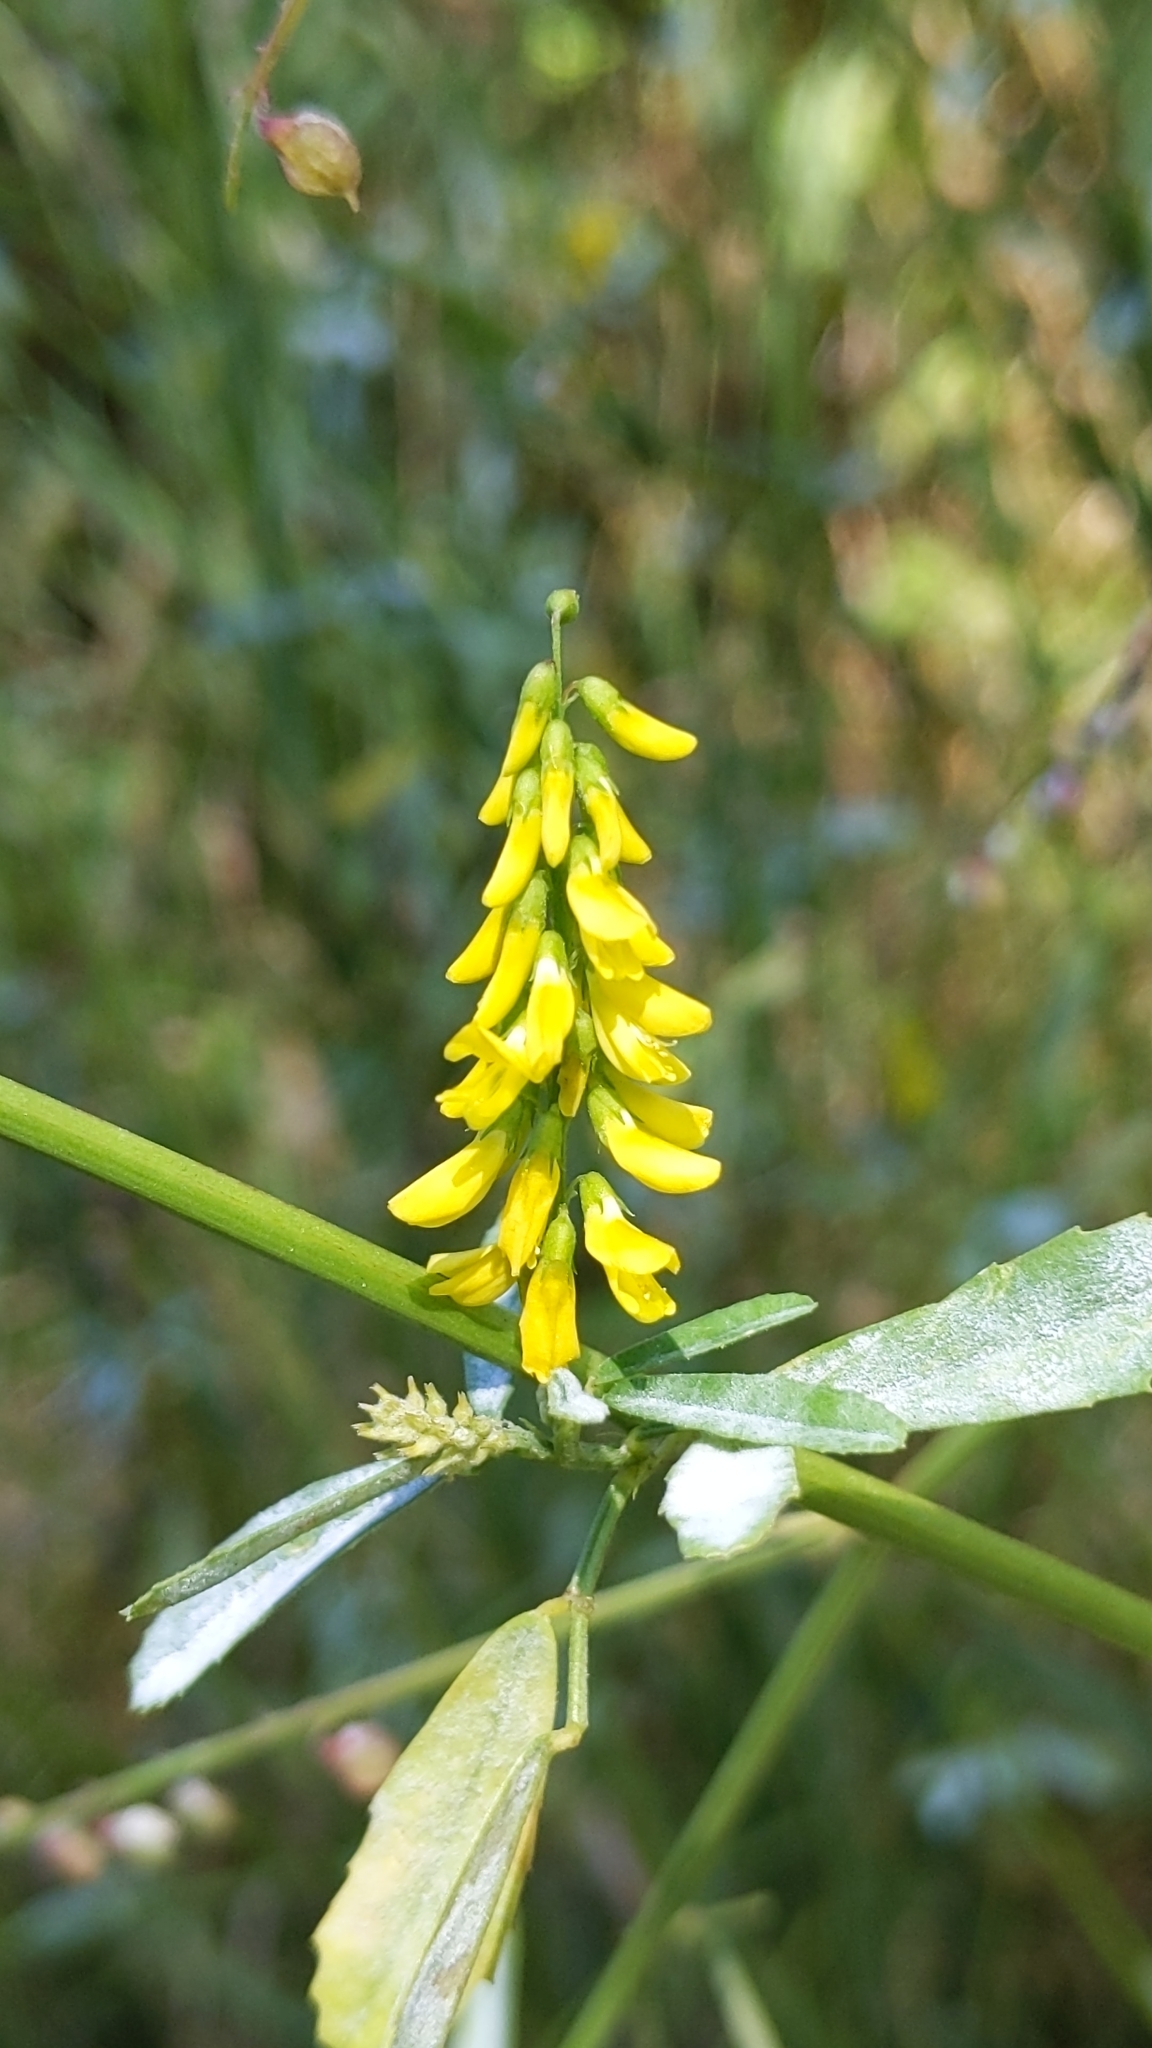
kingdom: Plantae
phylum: Tracheophyta
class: Magnoliopsida
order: Fabales
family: Fabaceae
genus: Melilotus
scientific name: Melilotus officinalis
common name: Sweetclover
